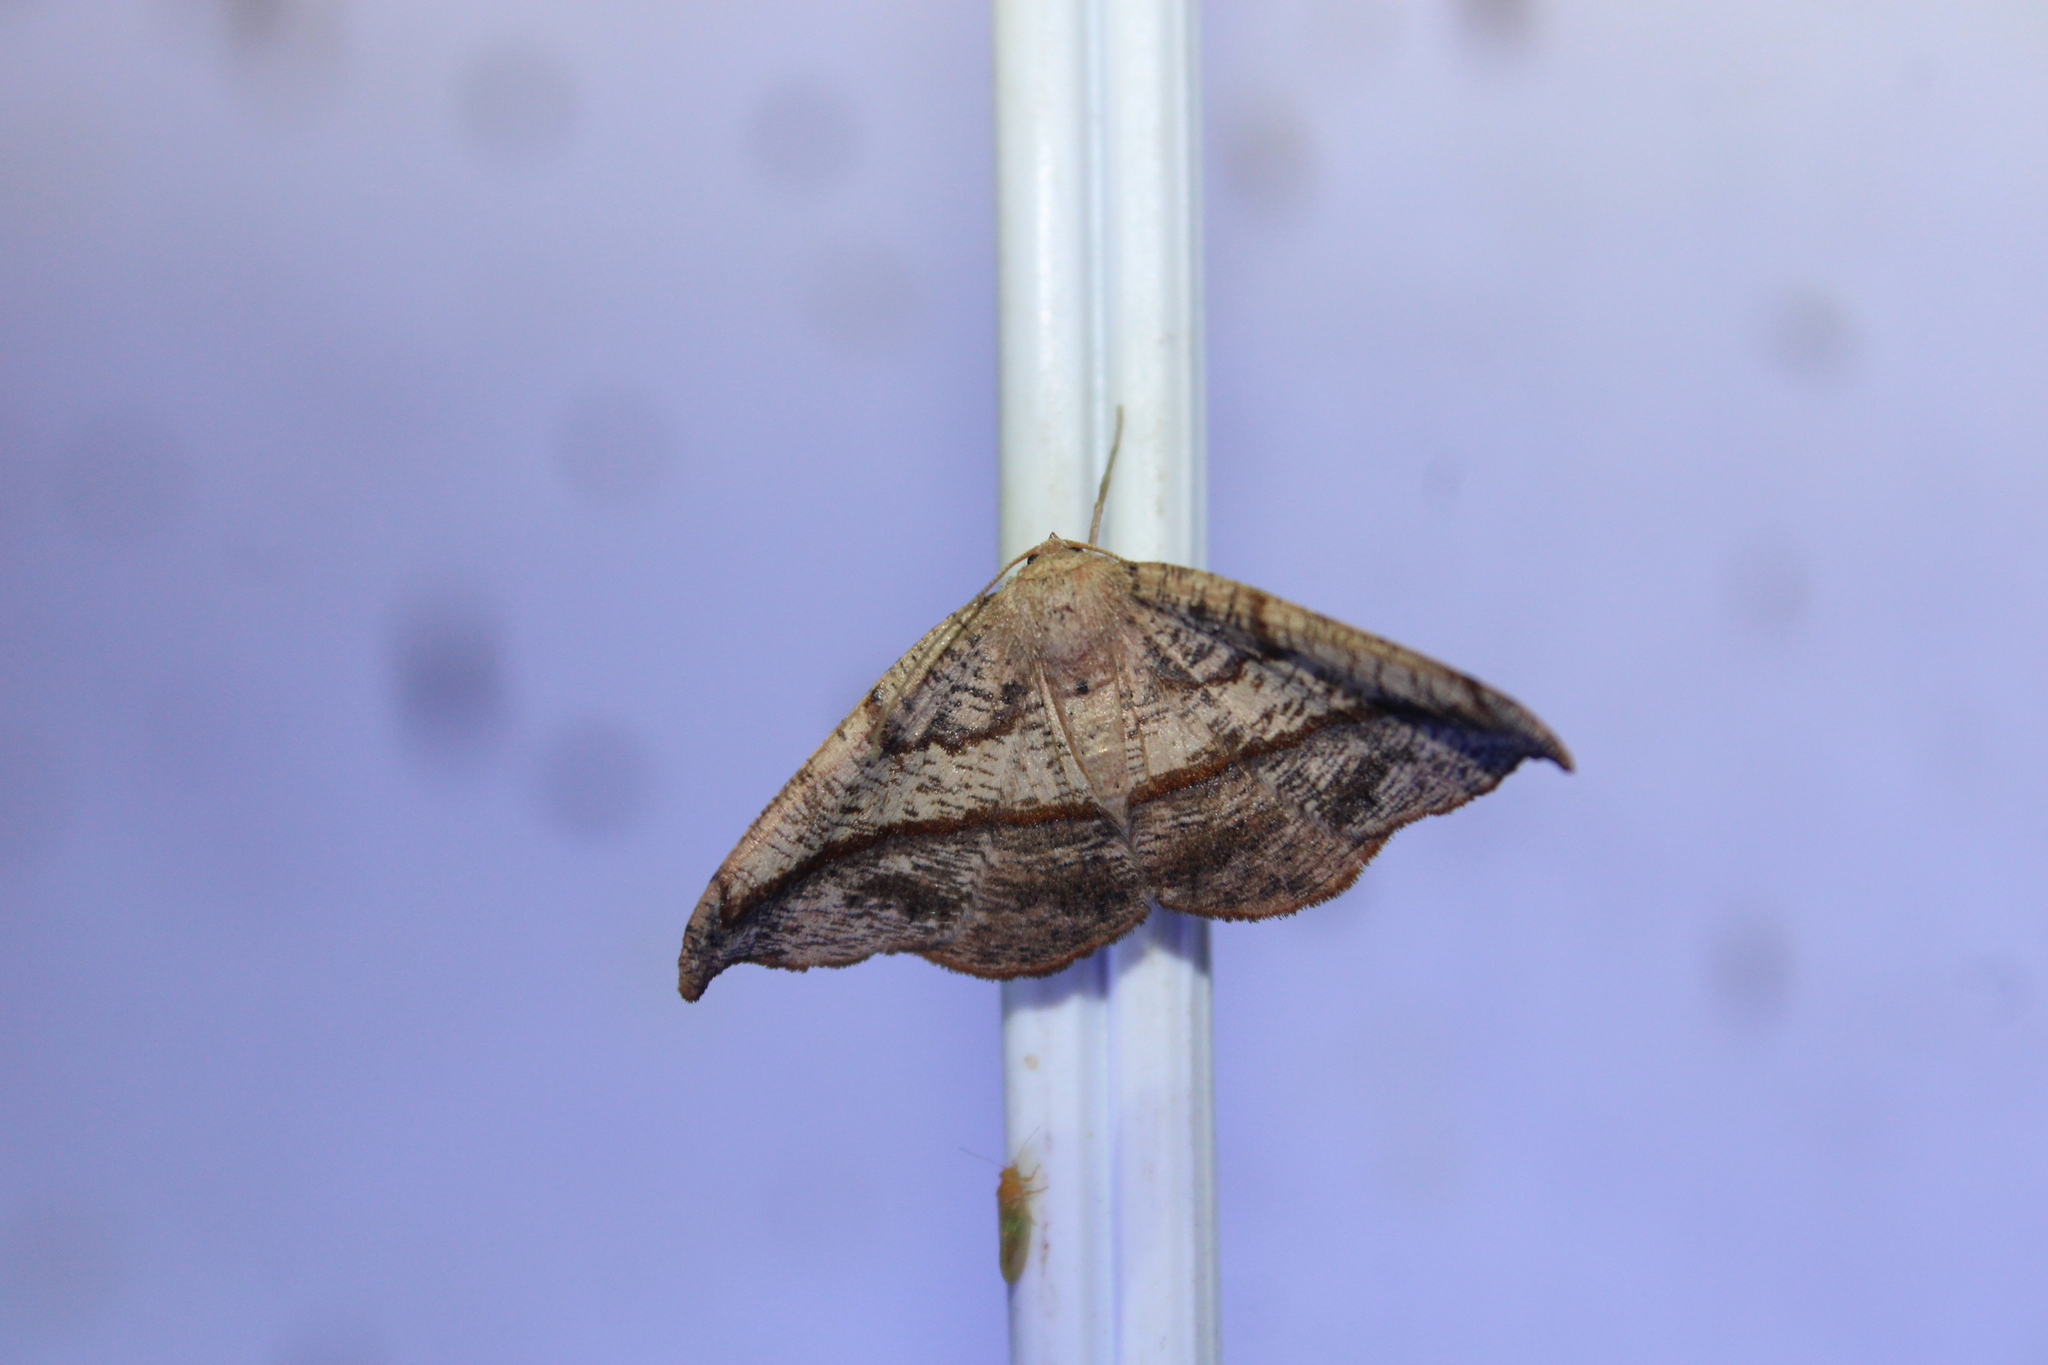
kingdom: Animalia
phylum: Arthropoda
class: Insecta
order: Lepidoptera
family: Geometridae
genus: Patalene
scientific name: Patalene olyzonaria
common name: Juniper geometer moth
